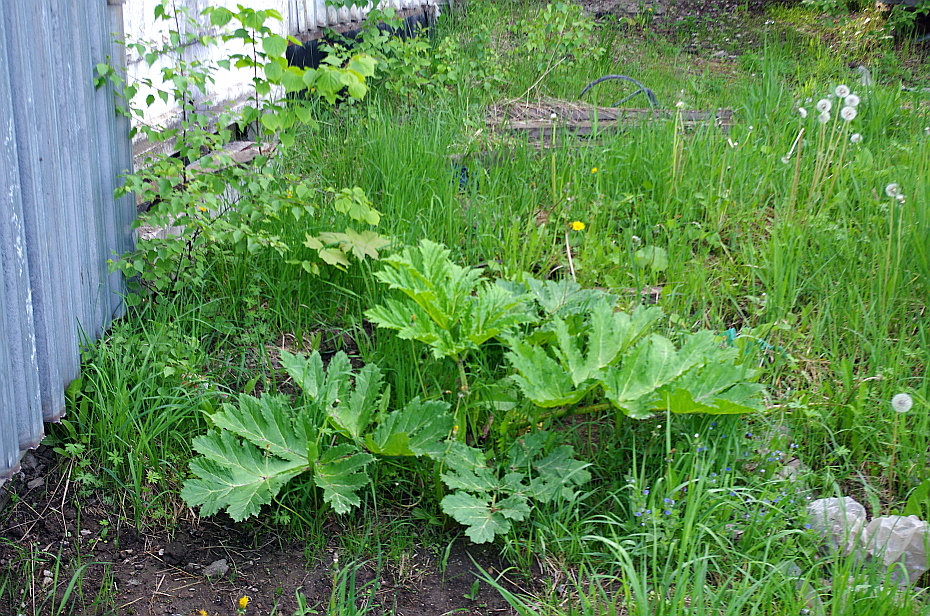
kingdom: Plantae
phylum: Tracheophyta
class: Magnoliopsida
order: Apiales
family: Apiaceae
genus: Heracleum
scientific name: Heracleum sosnowskyi
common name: Sosnowsky's hogweed
